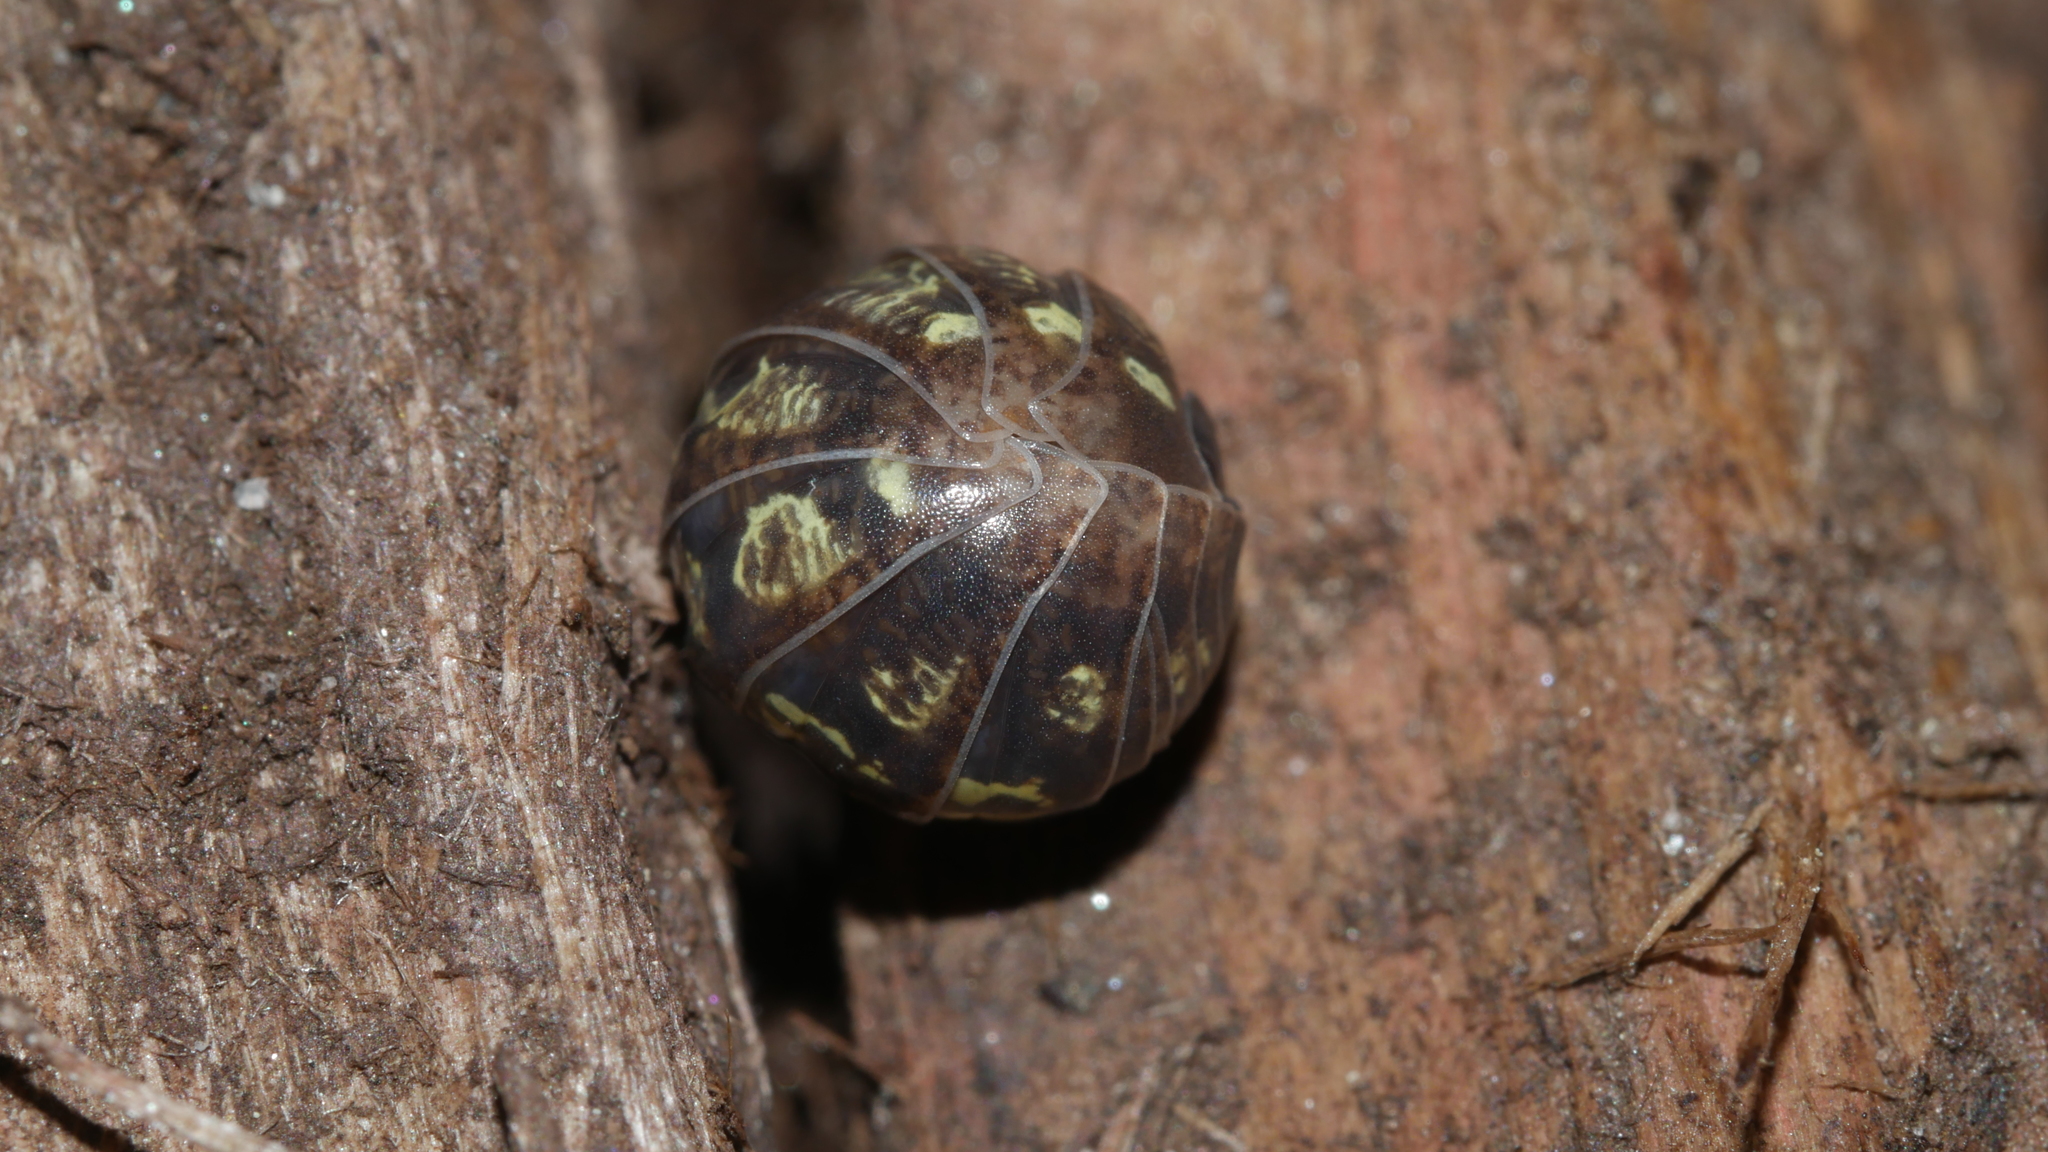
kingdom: Animalia
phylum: Arthropoda
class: Malacostraca
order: Isopoda
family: Armadillidiidae
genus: Armadillidium
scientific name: Armadillidium vulgare
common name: Common pill woodlouse
